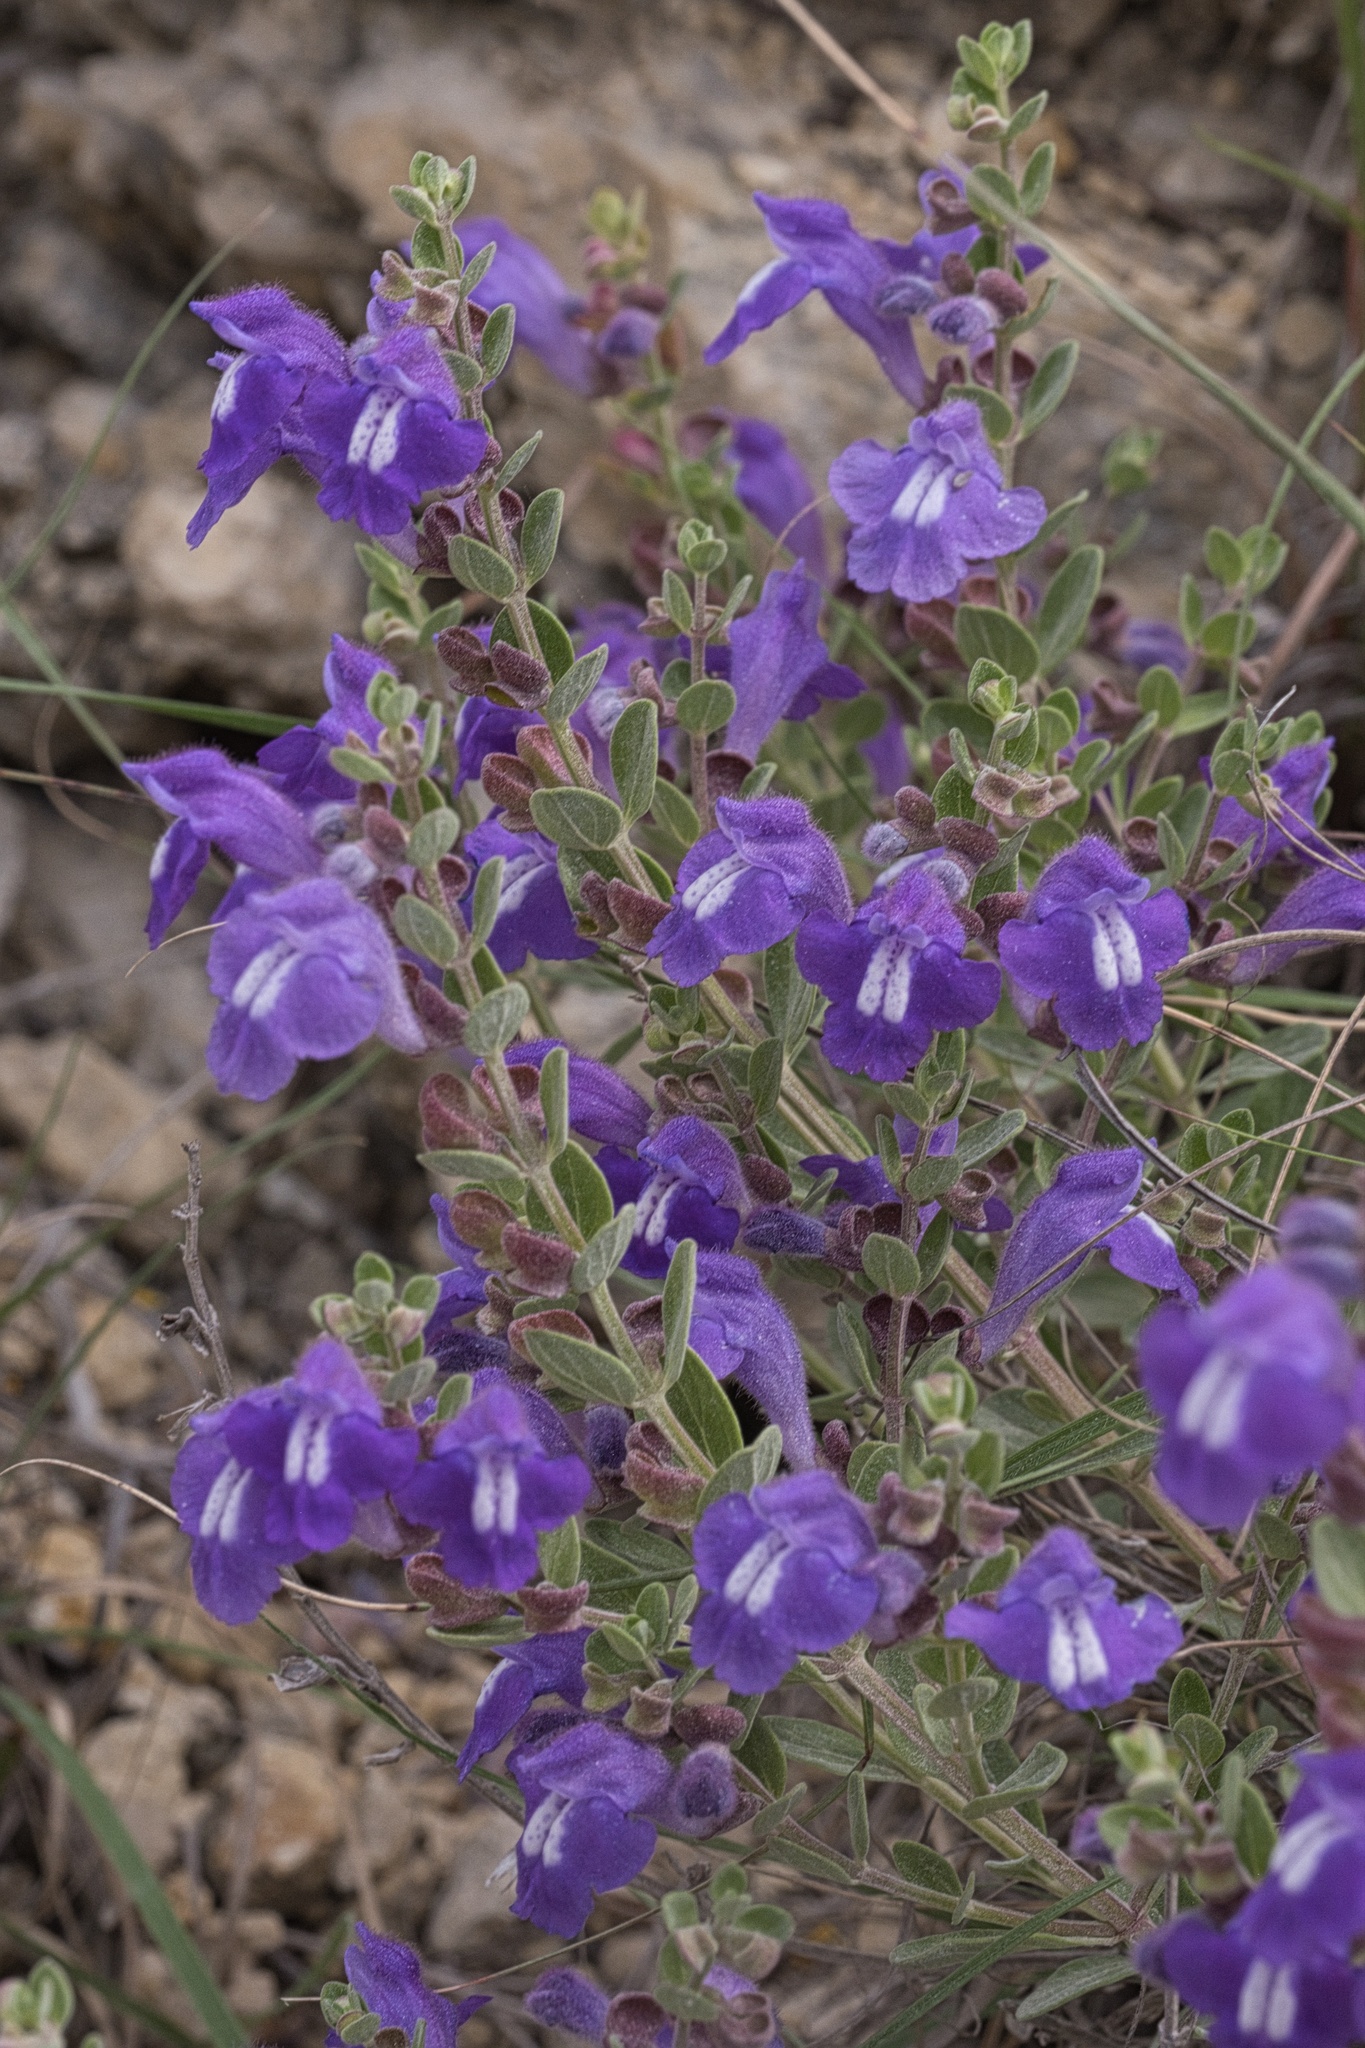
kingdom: Plantae
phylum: Tracheophyta
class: Magnoliopsida
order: Lamiales
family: Lamiaceae
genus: Scutellaria
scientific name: Scutellaria wrightii
